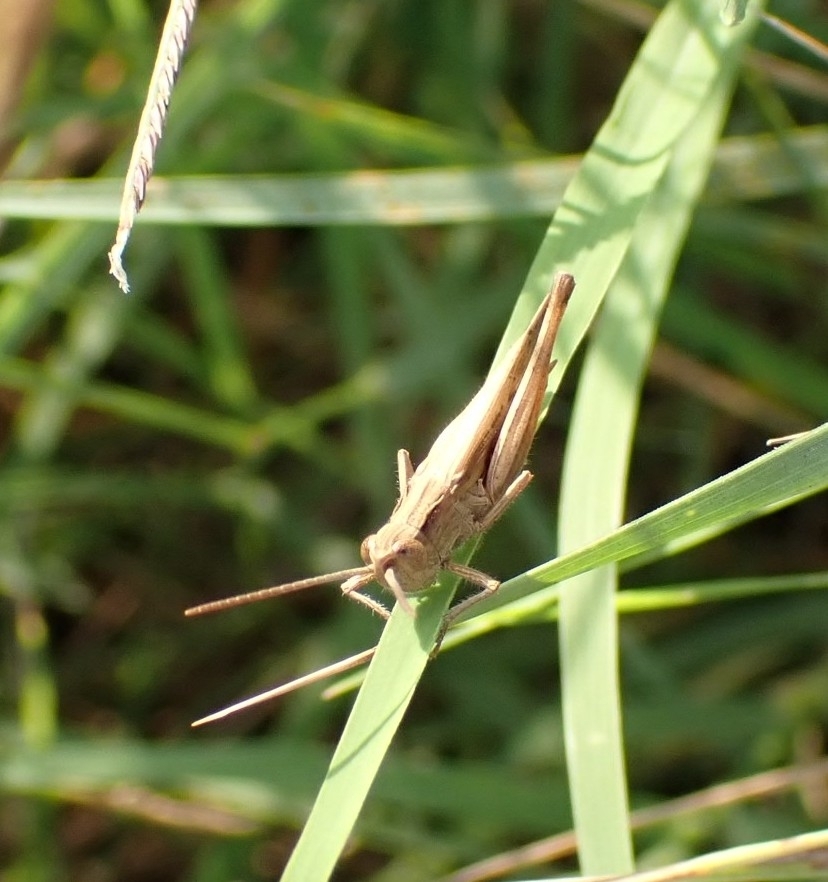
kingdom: Animalia
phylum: Arthropoda
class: Insecta
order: Orthoptera
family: Acrididae
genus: Chorthippus
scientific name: Chorthippus loratus
